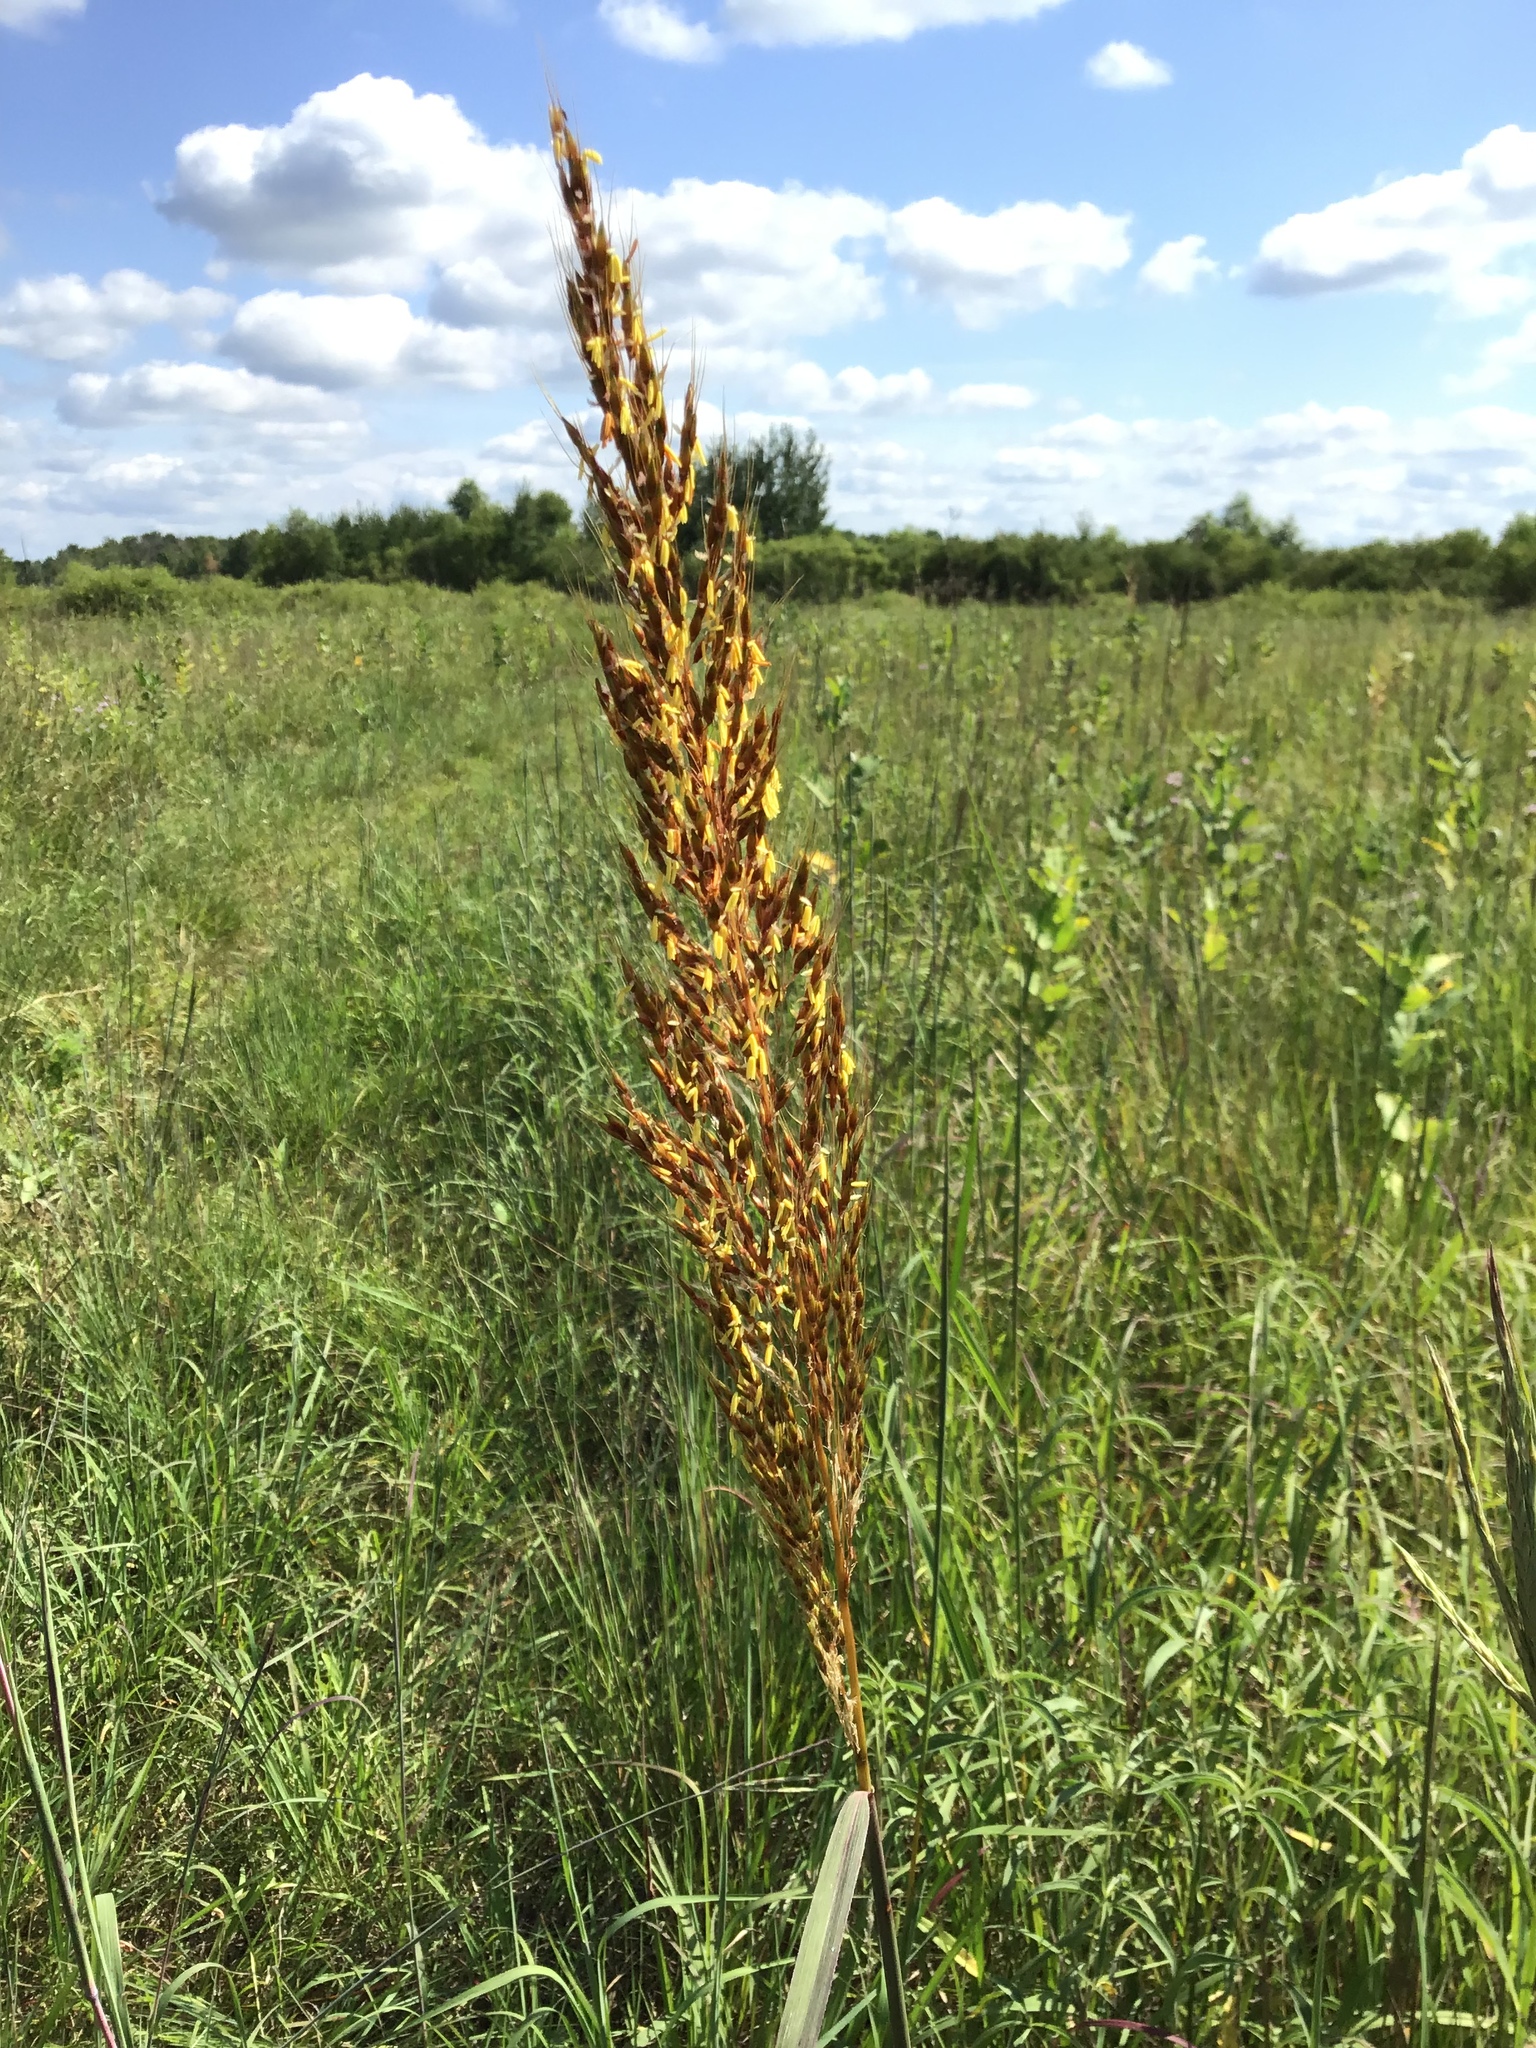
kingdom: Plantae
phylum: Tracheophyta
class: Liliopsida
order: Poales
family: Poaceae
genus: Sorghastrum
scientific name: Sorghastrum nutans
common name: Indian grass
